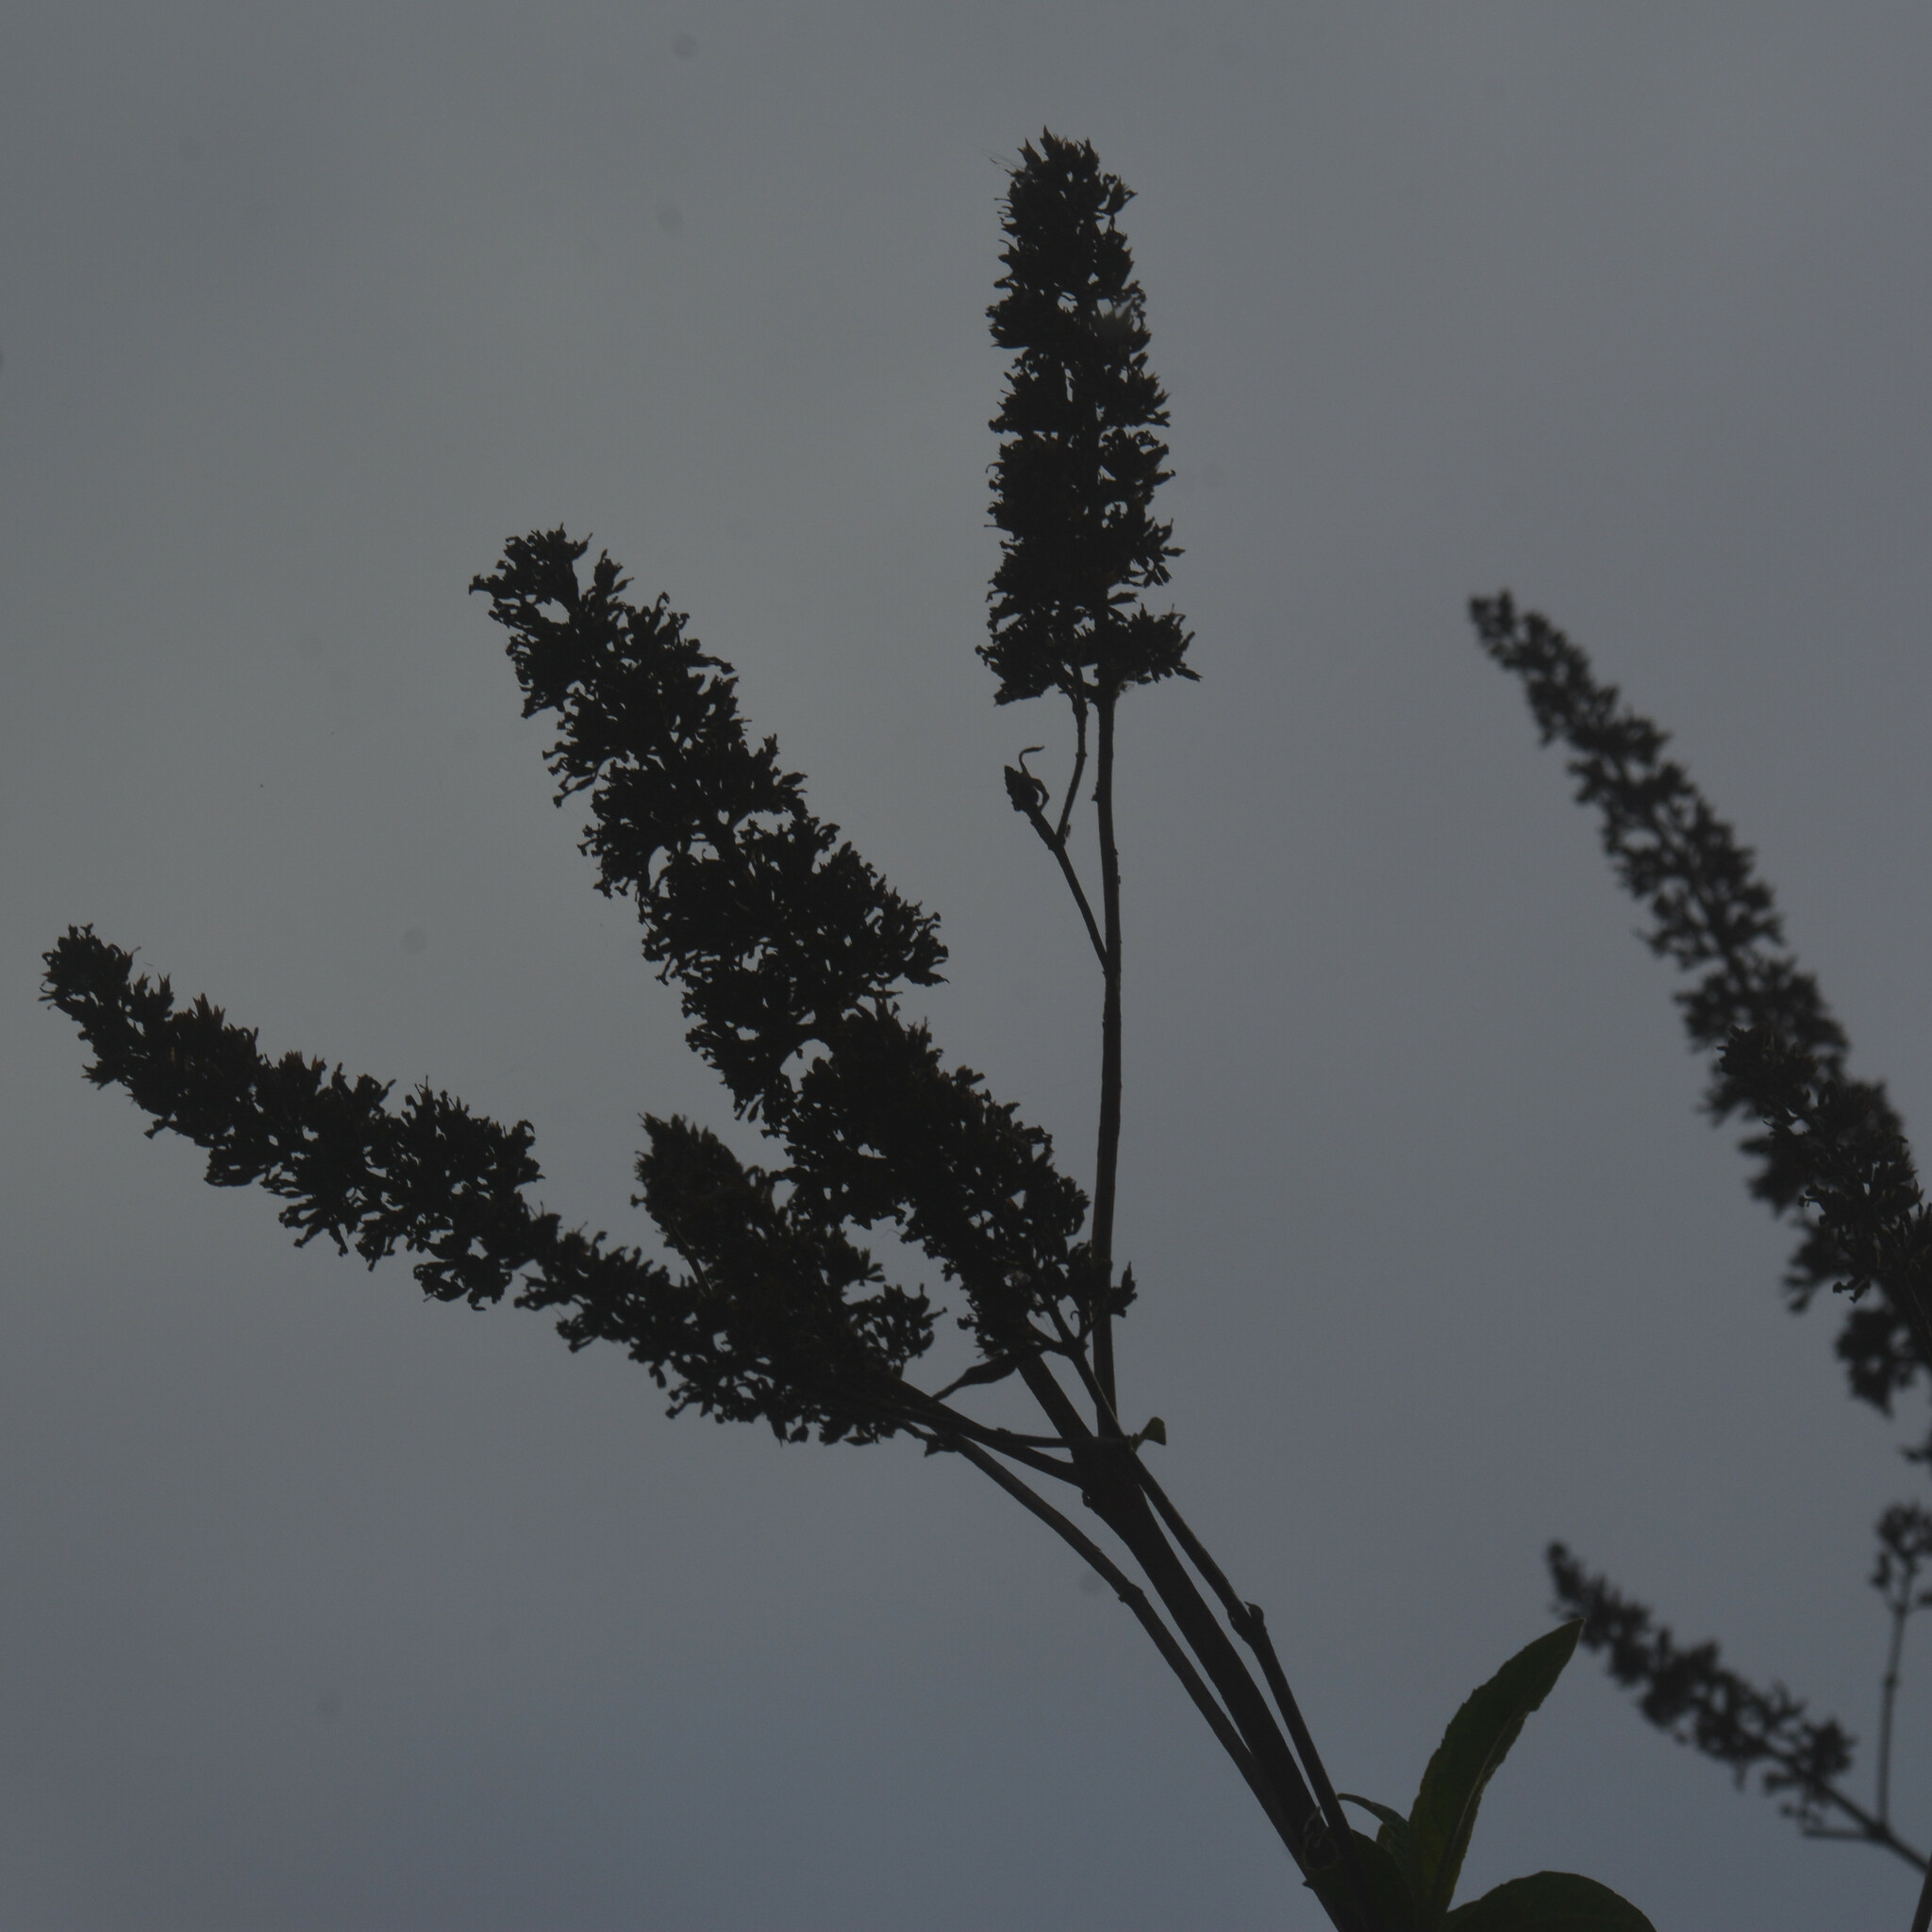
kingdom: Plantae
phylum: Tracheophyta
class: Magnoliopsida
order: Lamiales
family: Scrophulariaceae
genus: Buddleja
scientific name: Buddleja davidii
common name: Butterfly-bush
